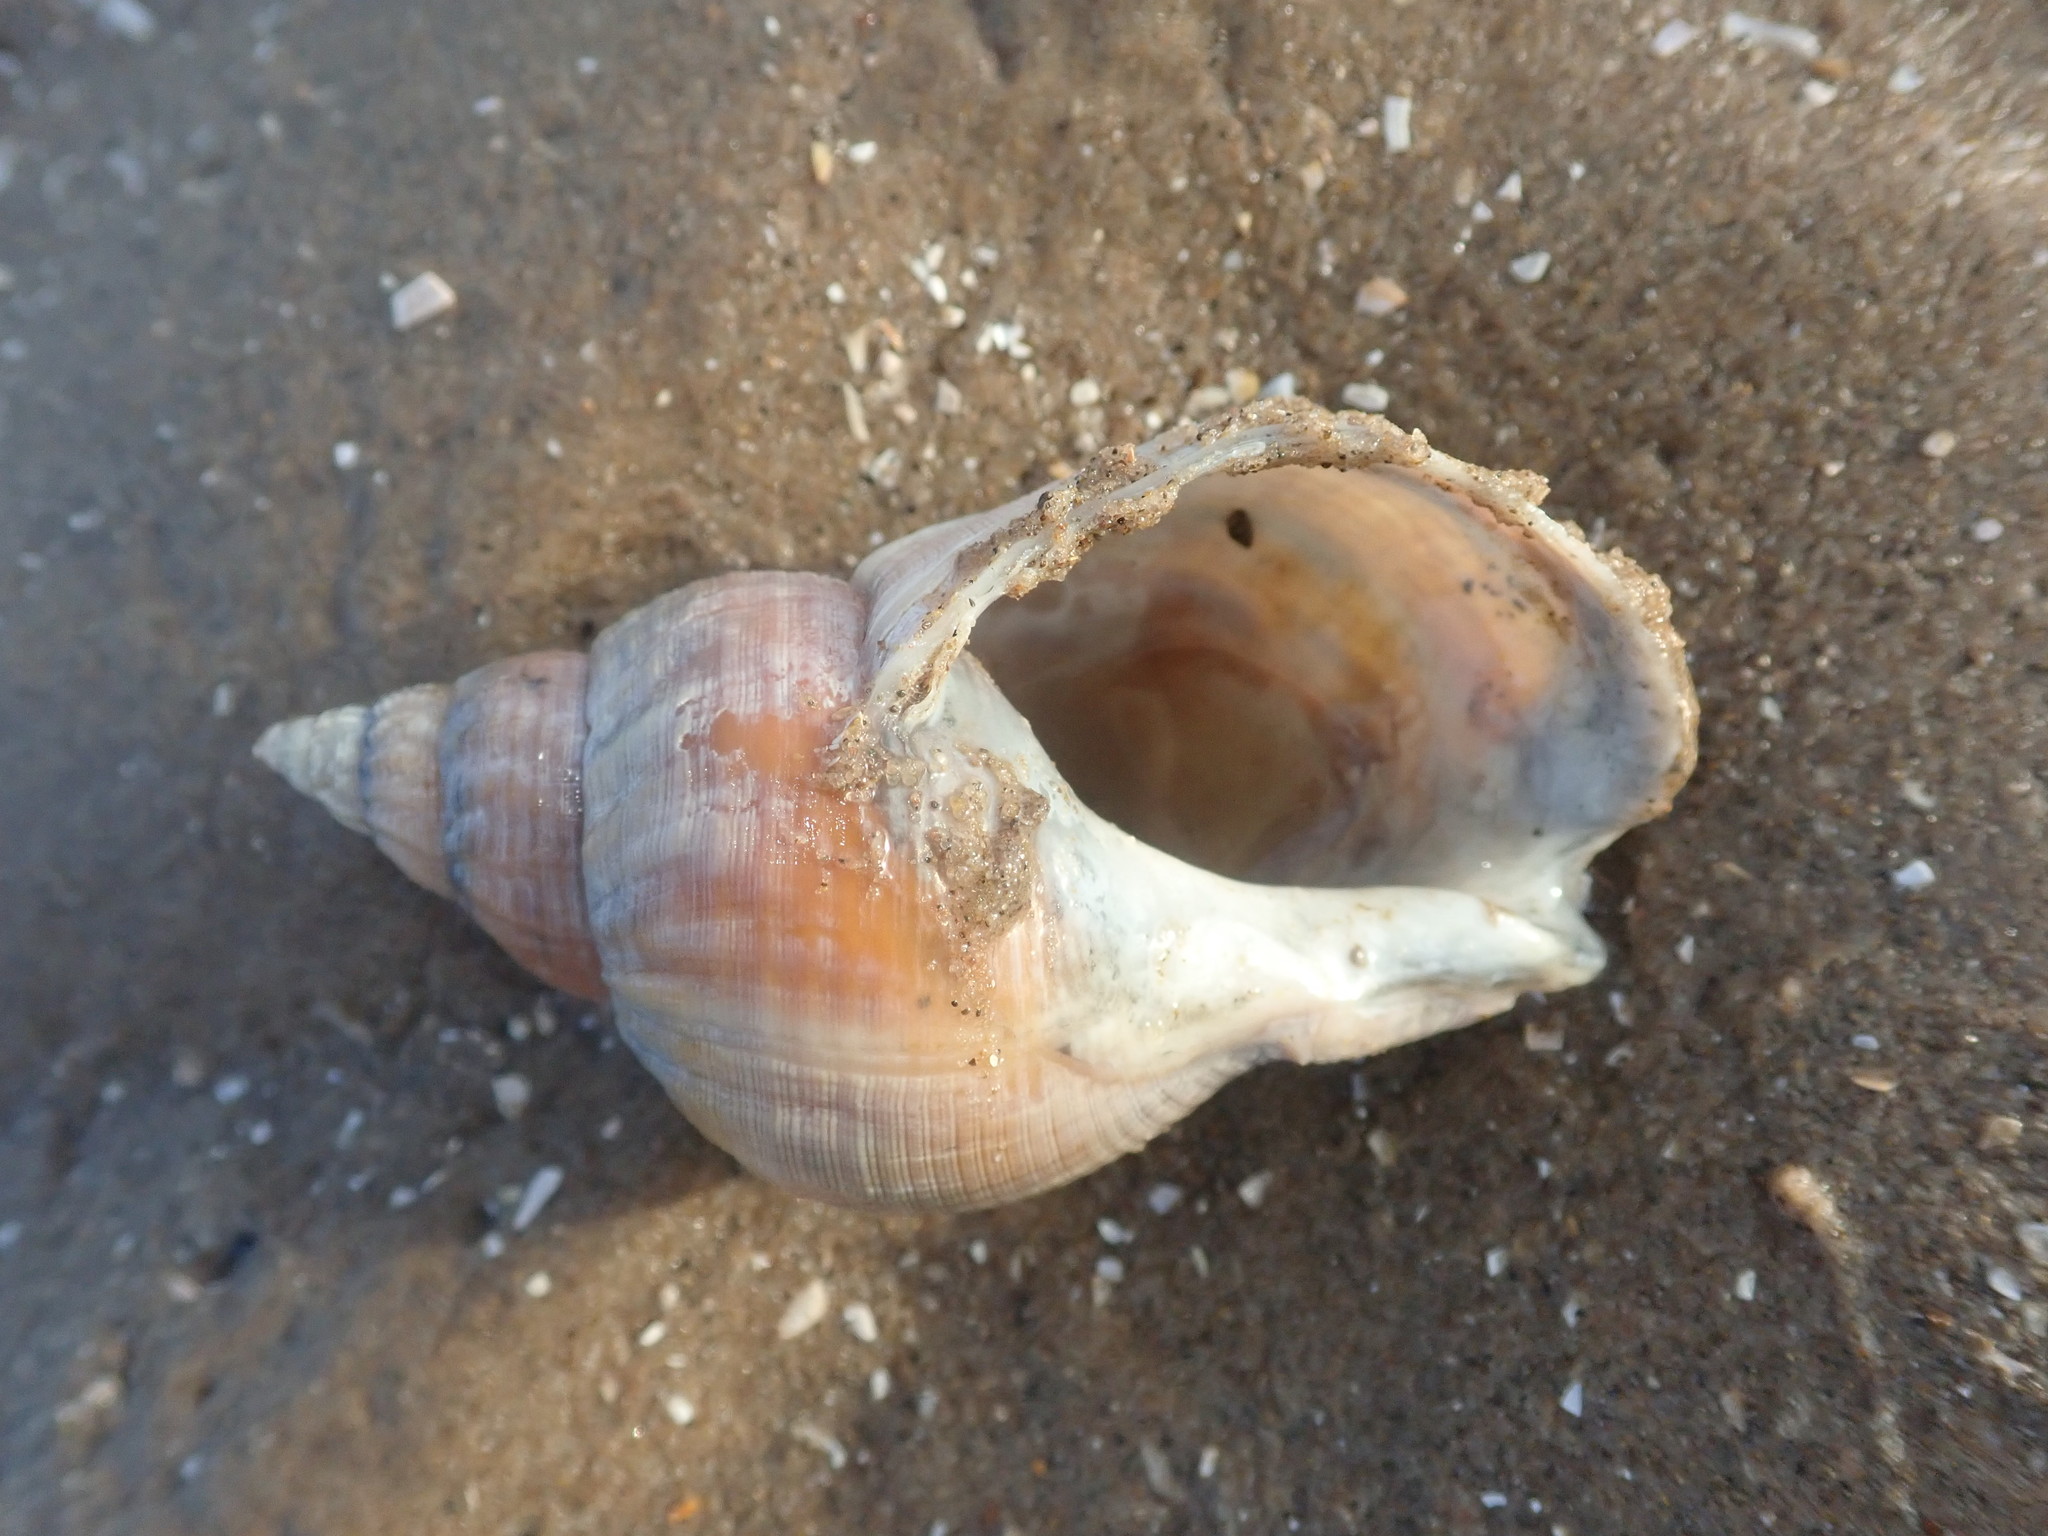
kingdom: Animalia
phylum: Mollusca
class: Gastropoda
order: Neogastropoda
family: Buccinidae
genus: Buccinum
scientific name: Buccinum undatum
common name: Common whelk
